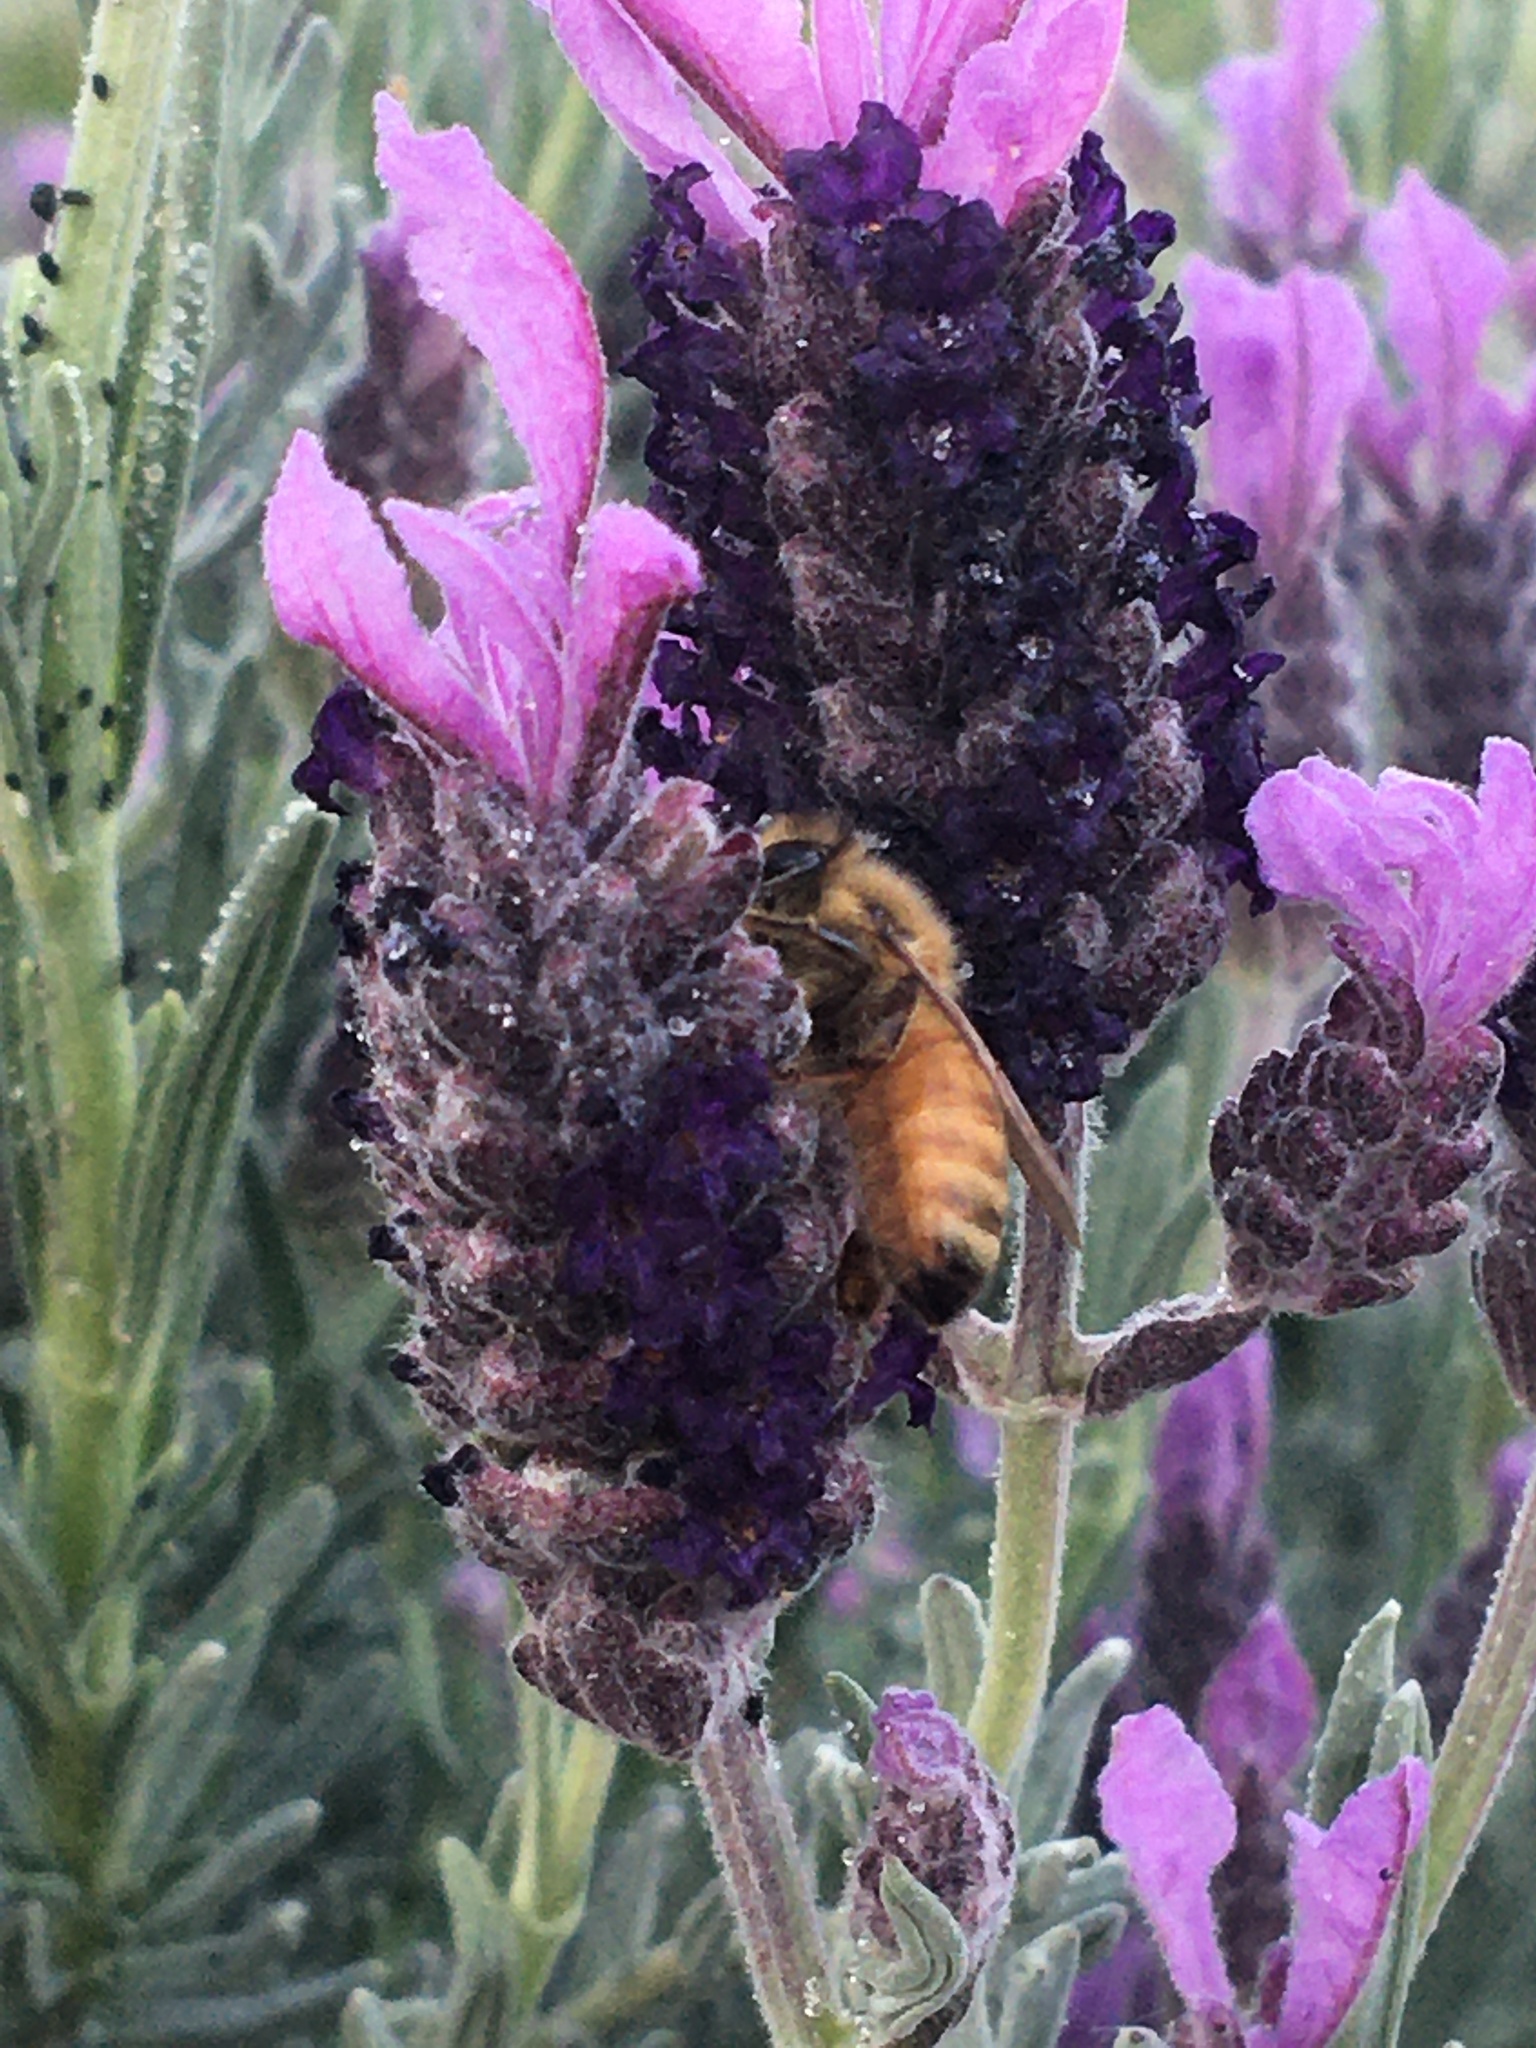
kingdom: Animalia
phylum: Arthropoda
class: Insecta
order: Hymenoptera
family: Apidae
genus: Apis
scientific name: Apis mellifera
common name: Honey bee
